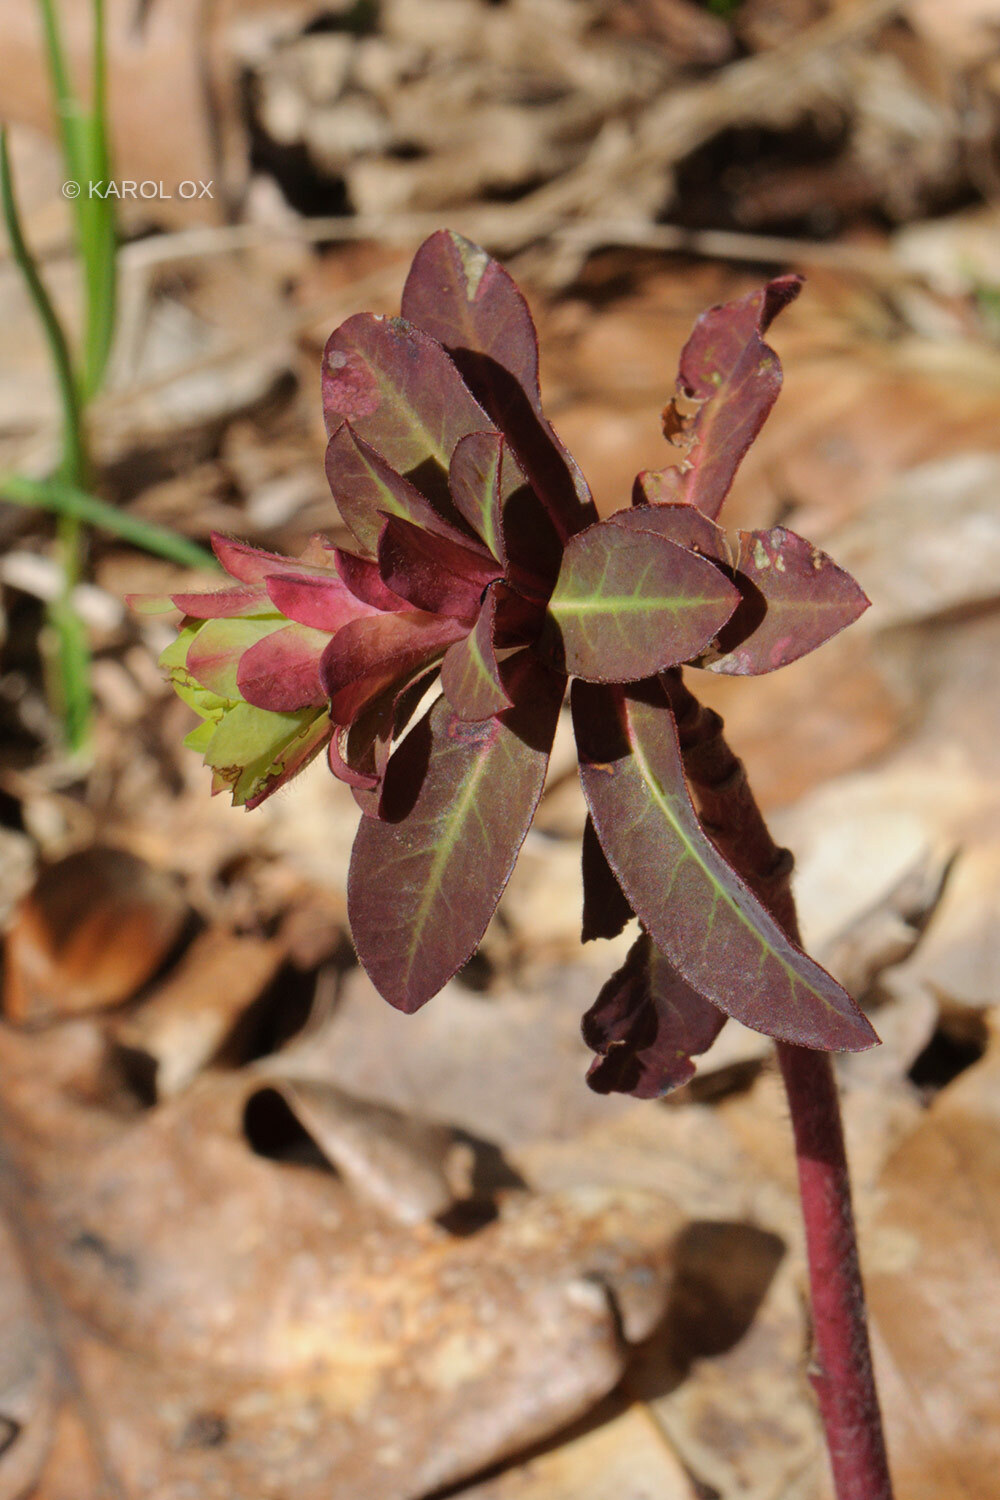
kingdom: Plantae
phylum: Tracheophyta
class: Magnoliopsida
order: Malpighiales
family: Euphorbiaceae
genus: Euphorbia
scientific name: Euphorbia amygdaloides
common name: Wood spurge
